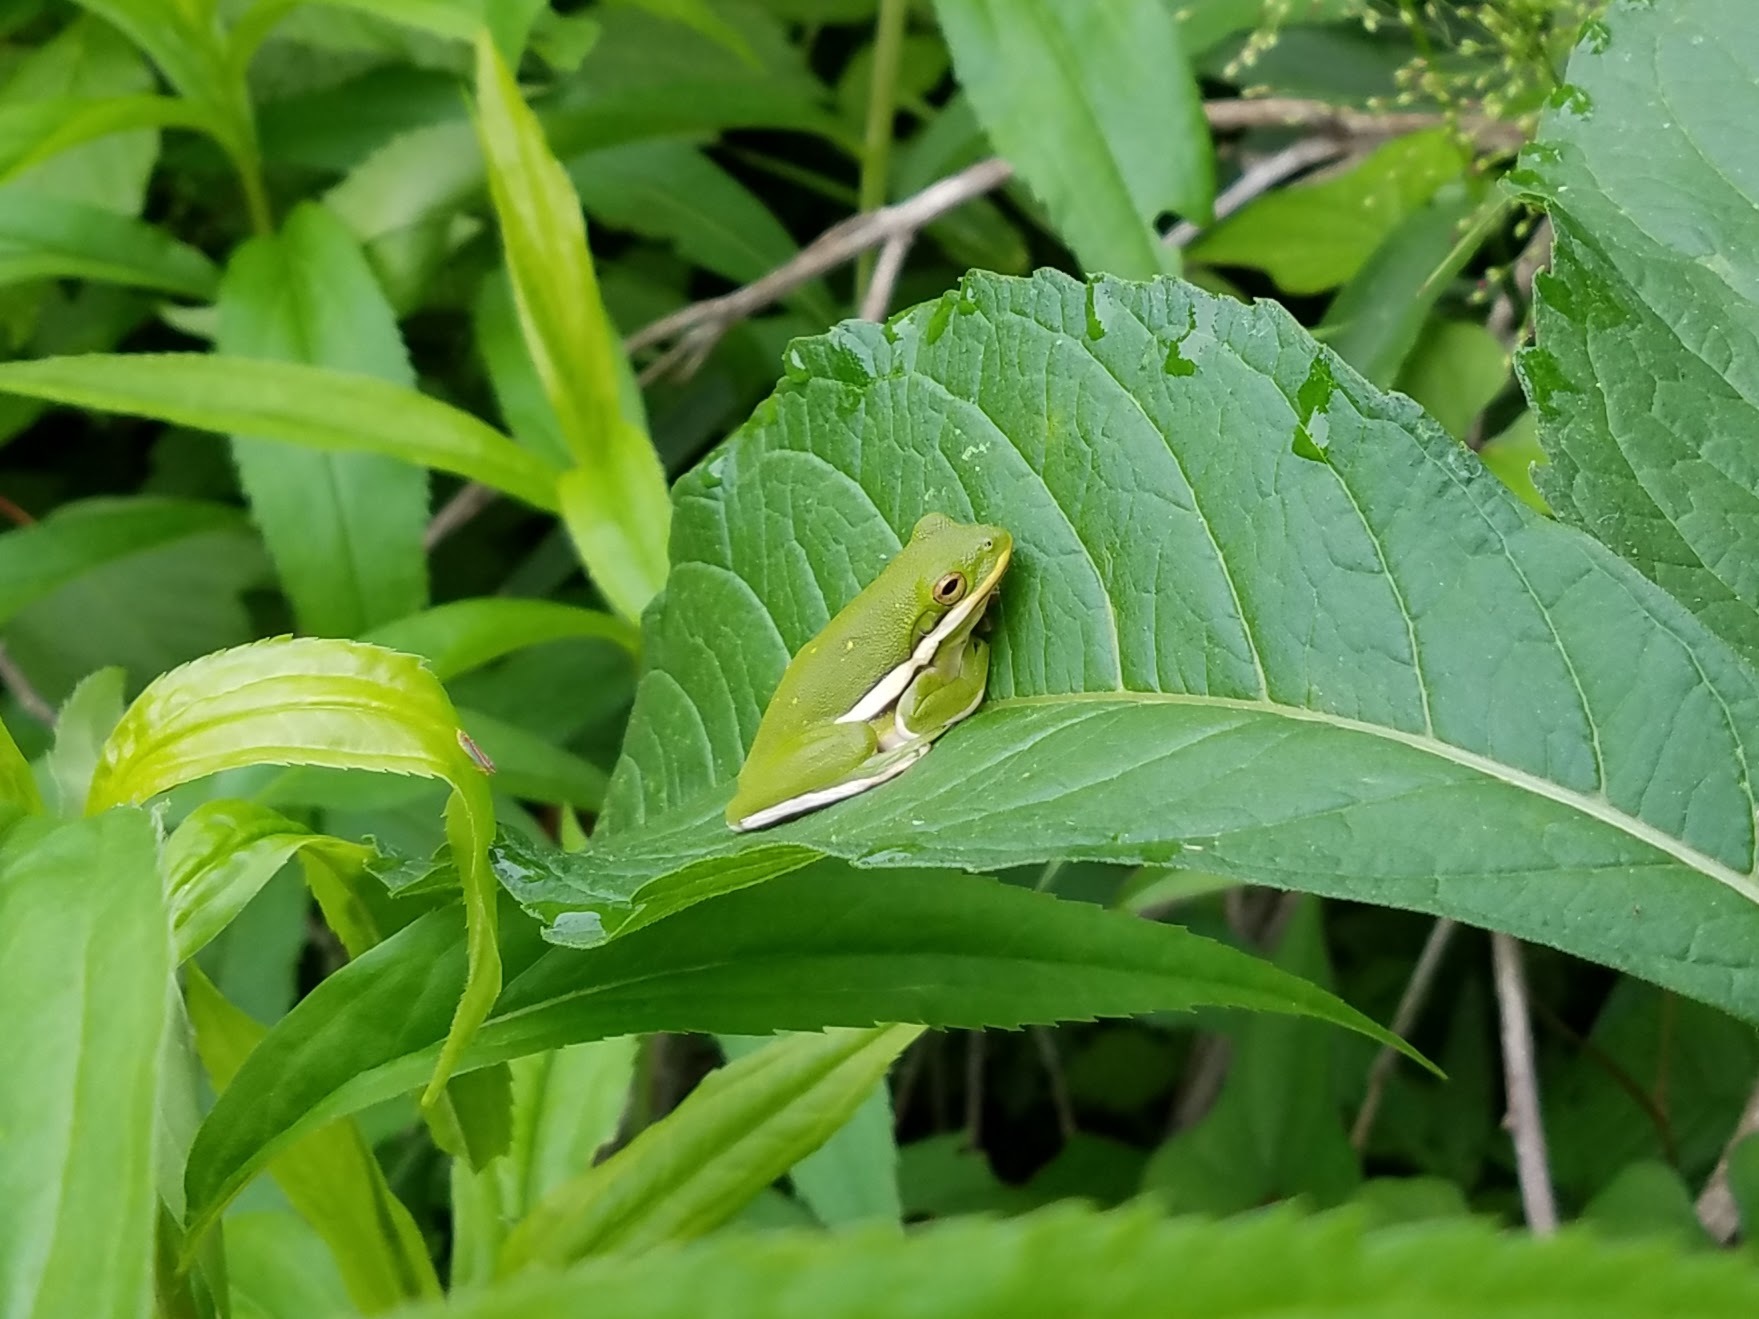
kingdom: Animalia
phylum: Chordata
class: Amphibia
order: Anura
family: Hylidae
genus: Dryophytes
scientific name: Dryophytes cinereus
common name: Green treefrog
